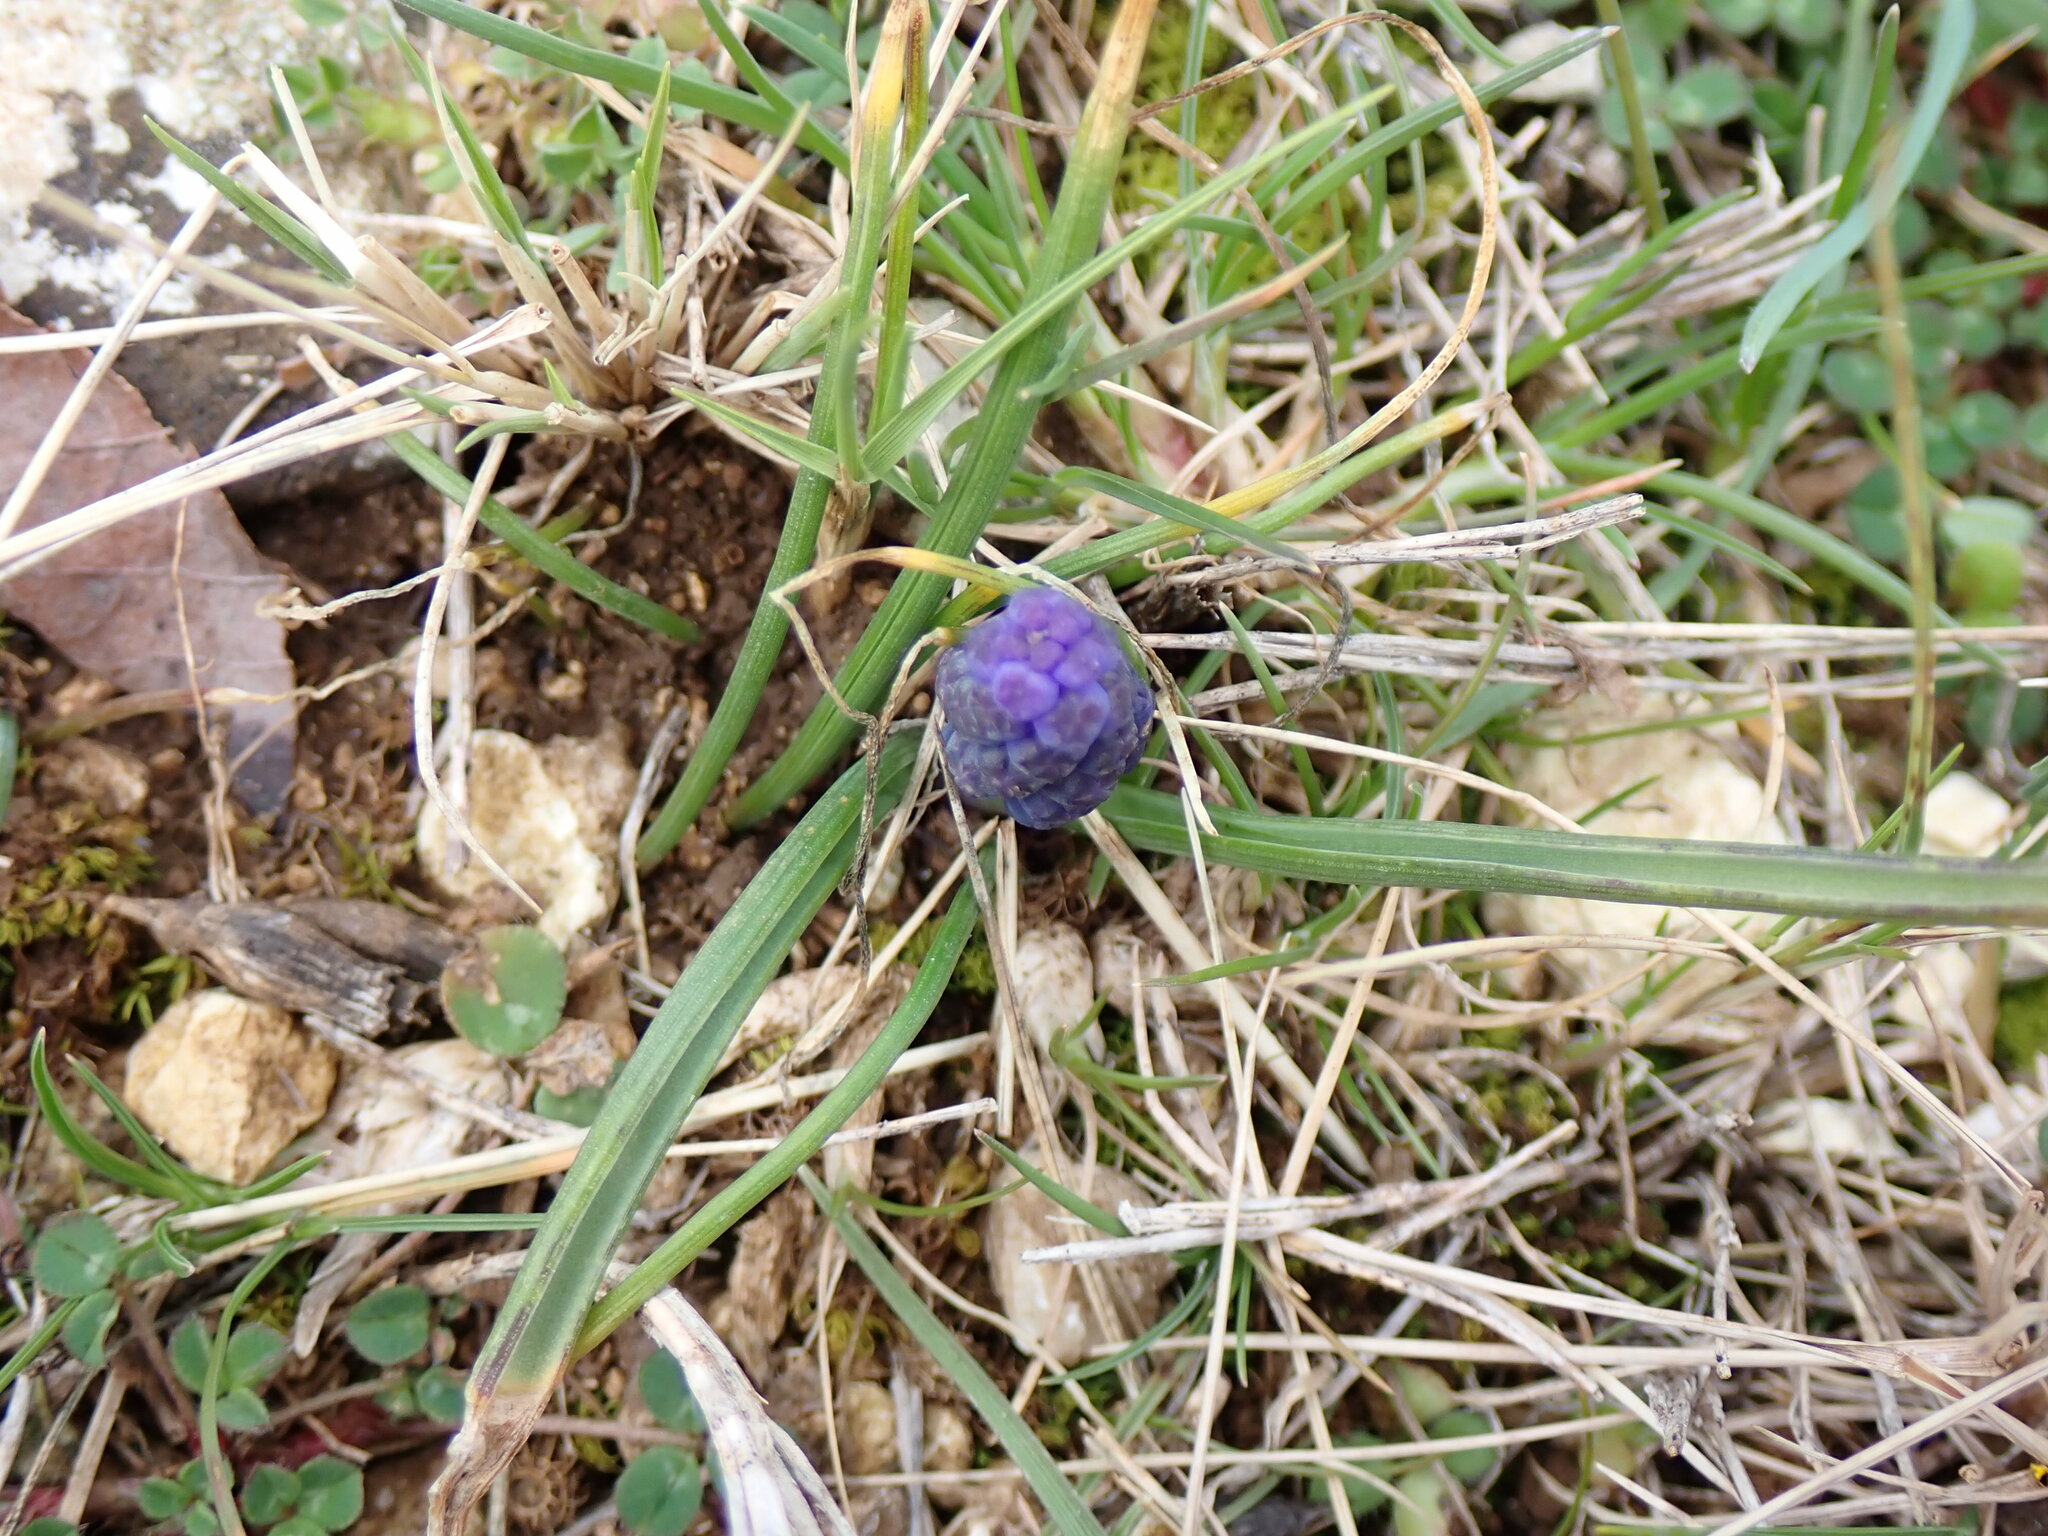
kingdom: Plantae
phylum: Tracheophyta
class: Liliopsida
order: Asparagales
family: Asparagaceae
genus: Muscari
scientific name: Muscari neglectum
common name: Grape-hyacinth
